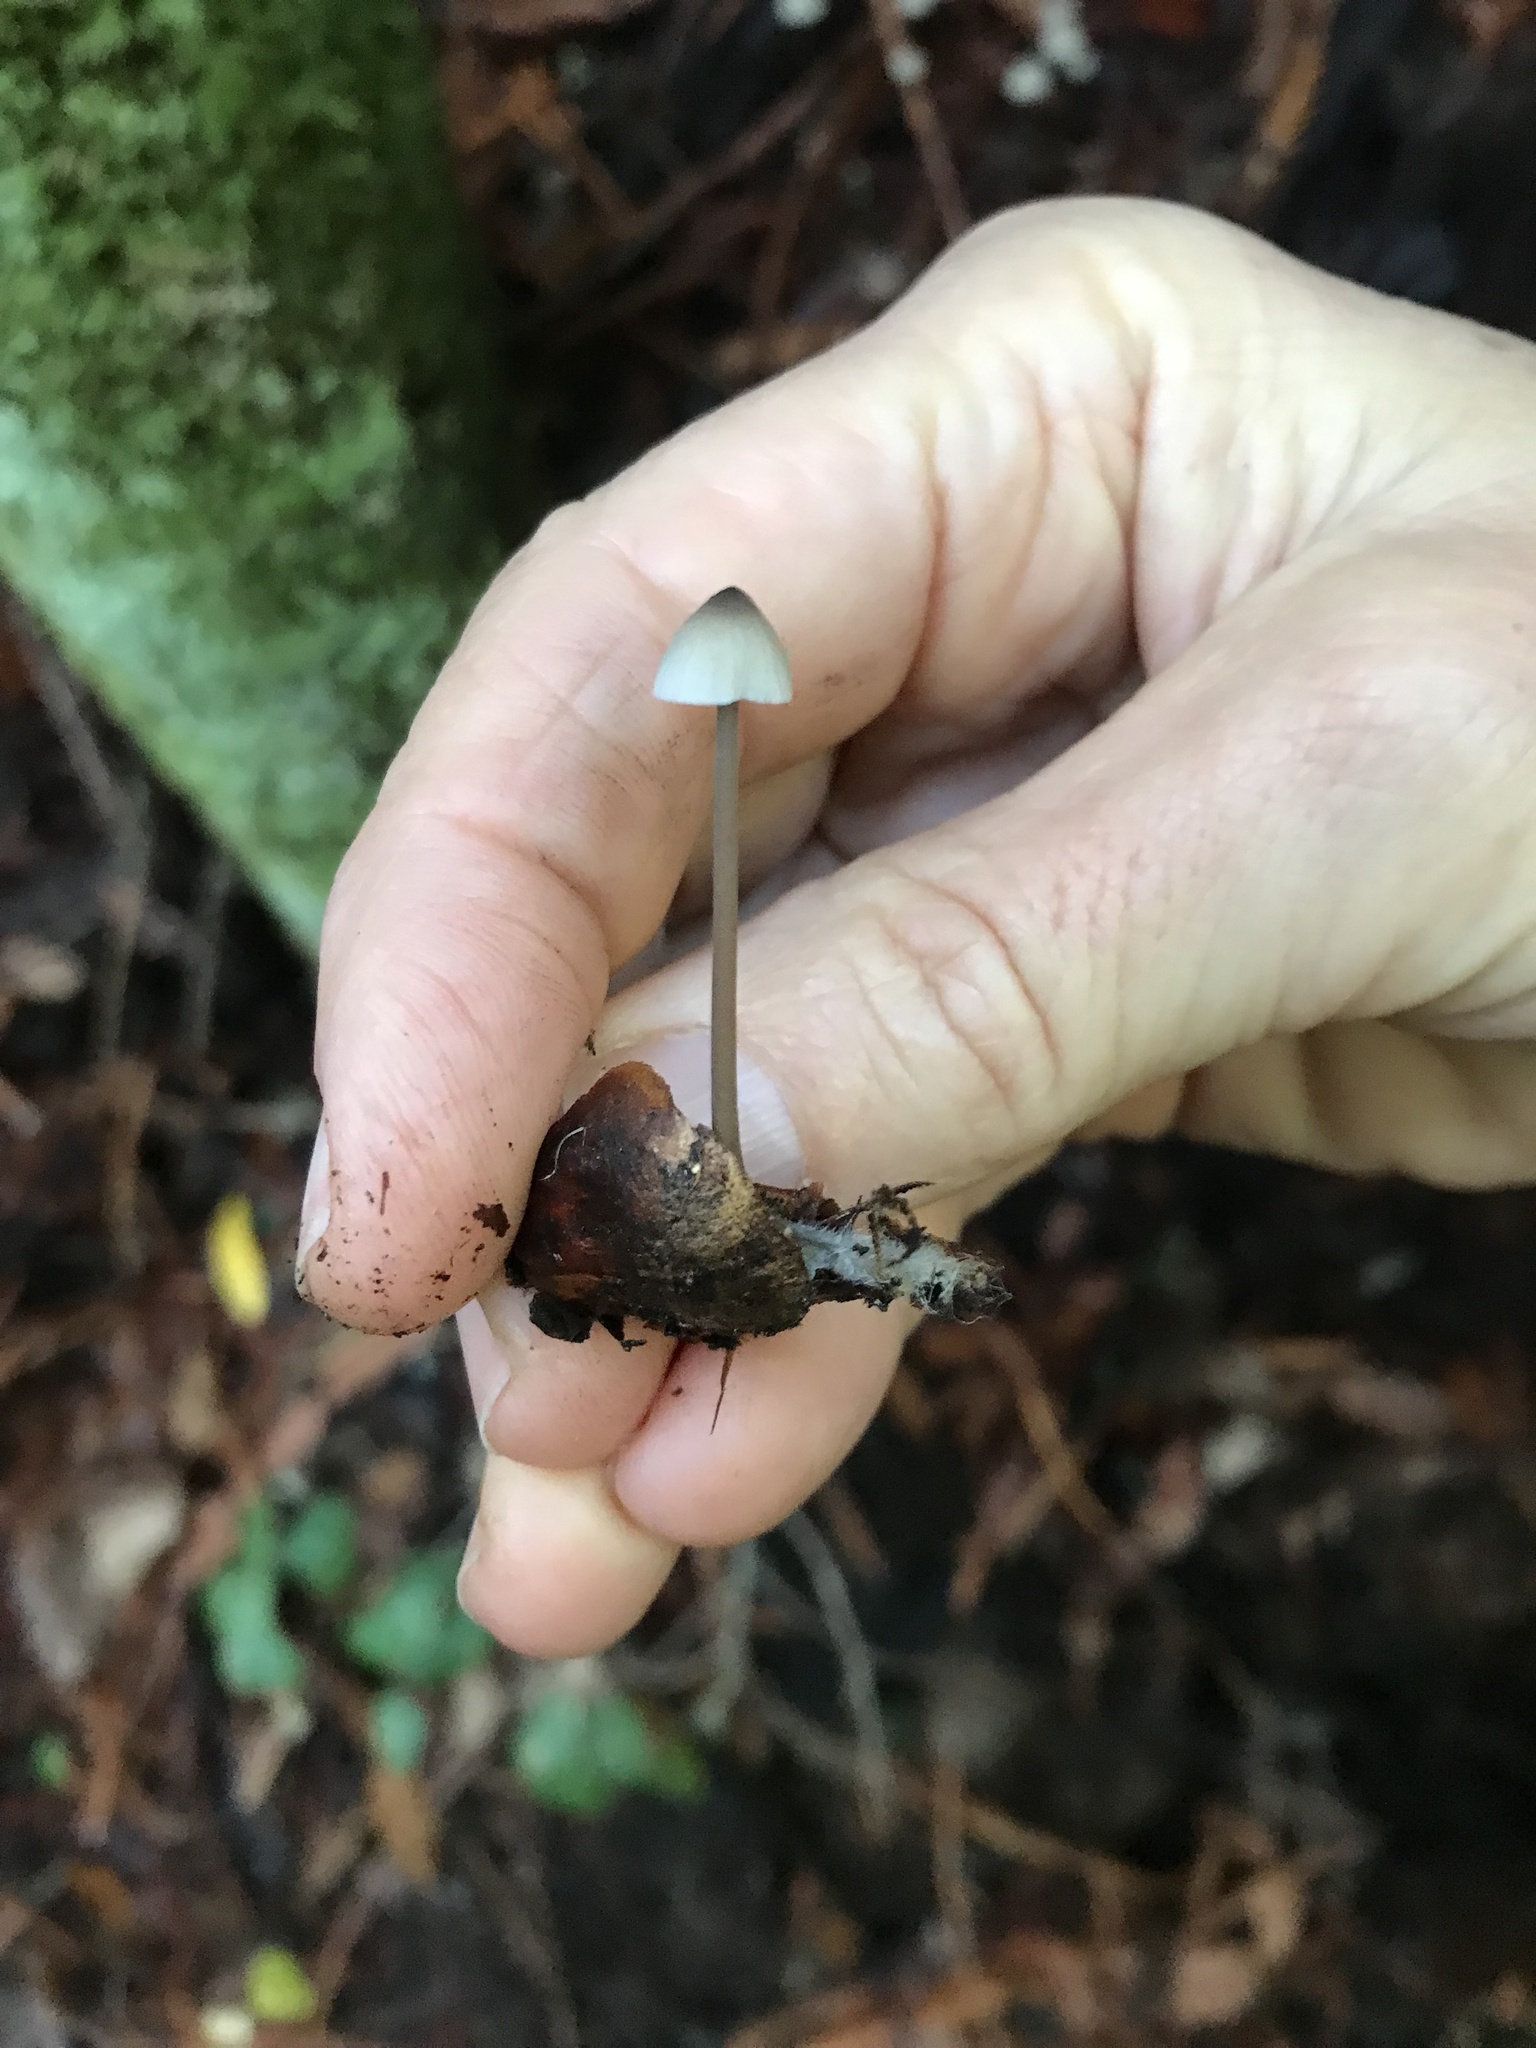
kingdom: Fungi
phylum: Basidiomycota
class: Agaricomycetes
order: Agaricales
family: Mycenaceae
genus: Mycena
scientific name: Mycena galopus
